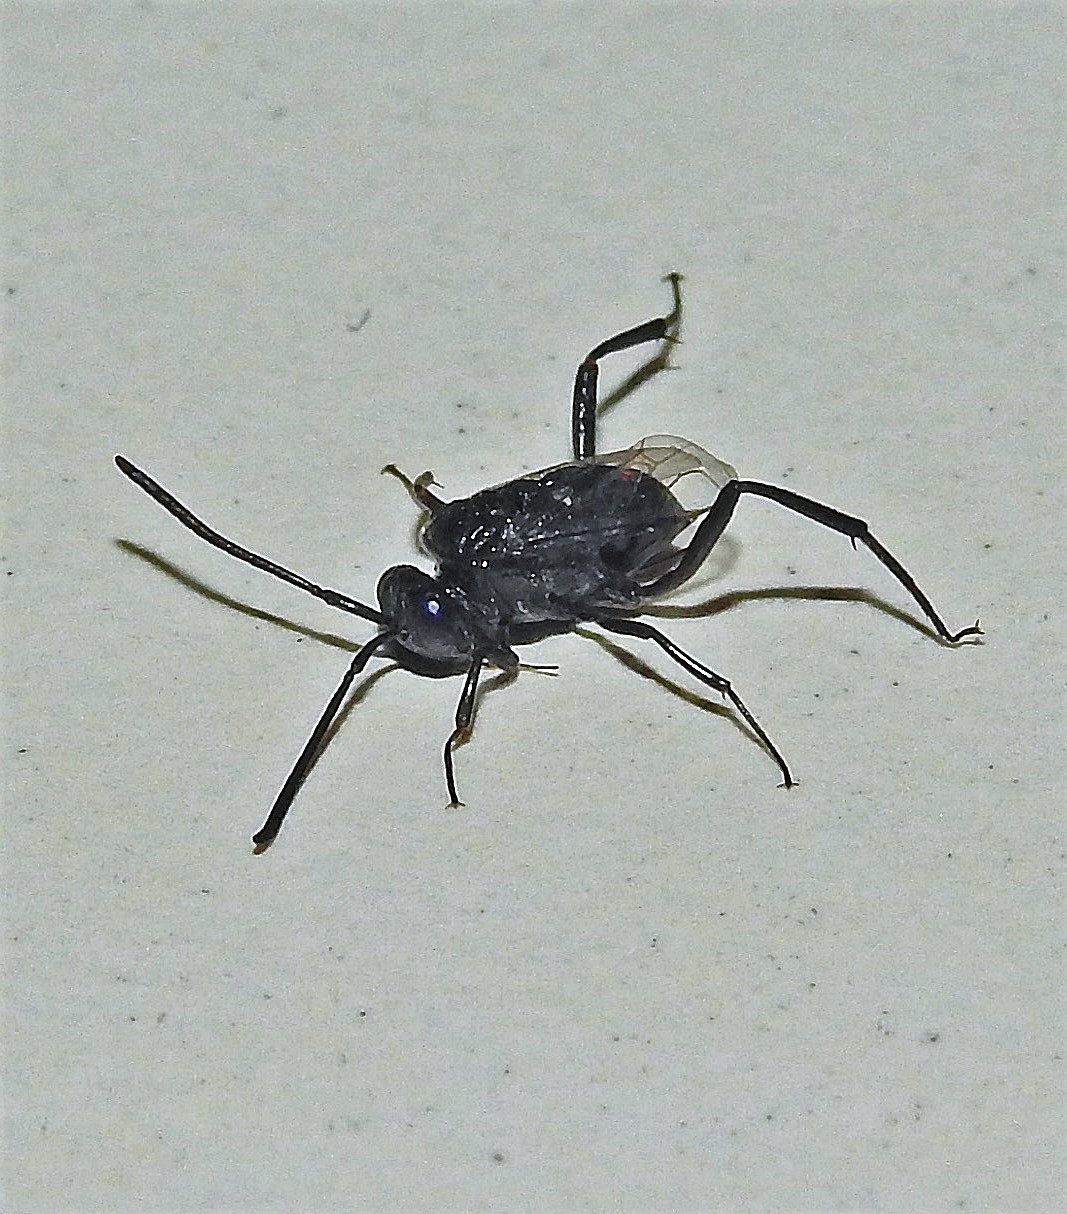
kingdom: Animalia
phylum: Arthropoda
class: Insecta
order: Hymenoptera
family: Evaniidae
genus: Evania
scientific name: Evania appendigaster
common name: Ensign wasp
